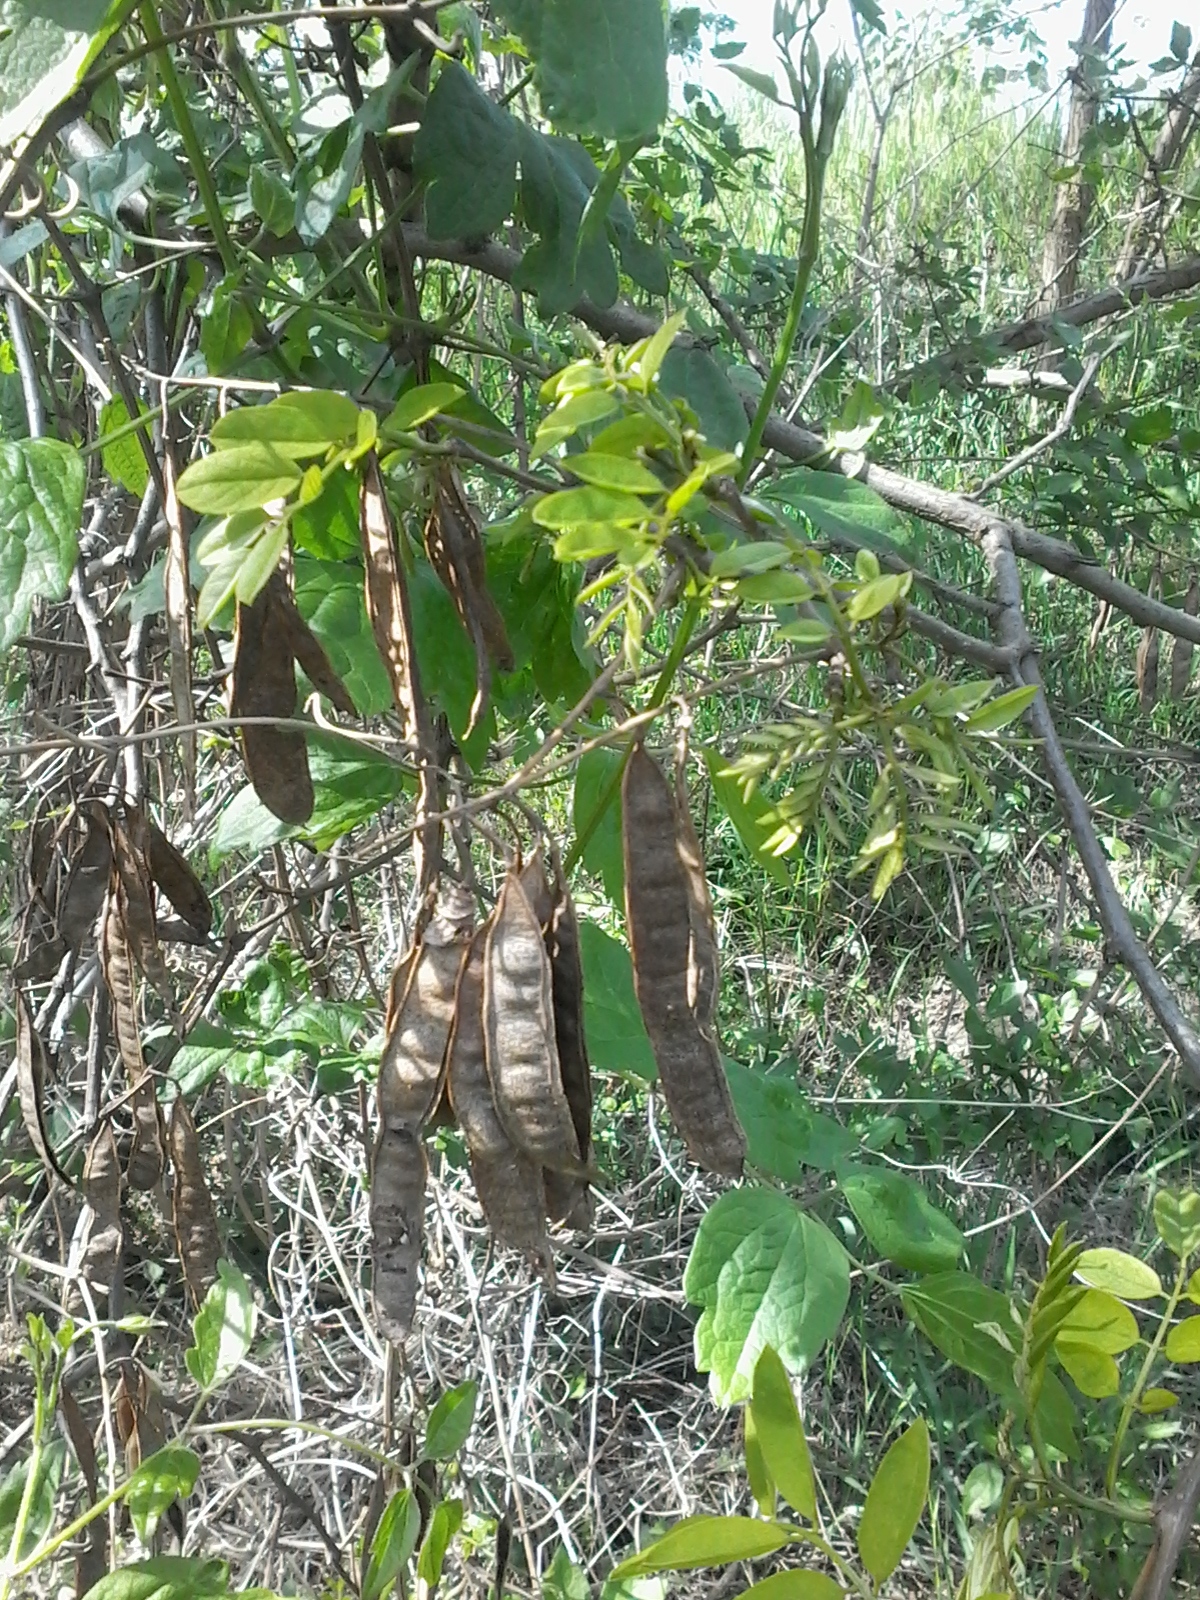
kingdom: Plantae
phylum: Tracheophyta
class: Magnoliopsida
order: Fabales
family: Fabaceae
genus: Robinia
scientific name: Robinia pseudoacacia
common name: Black locust
